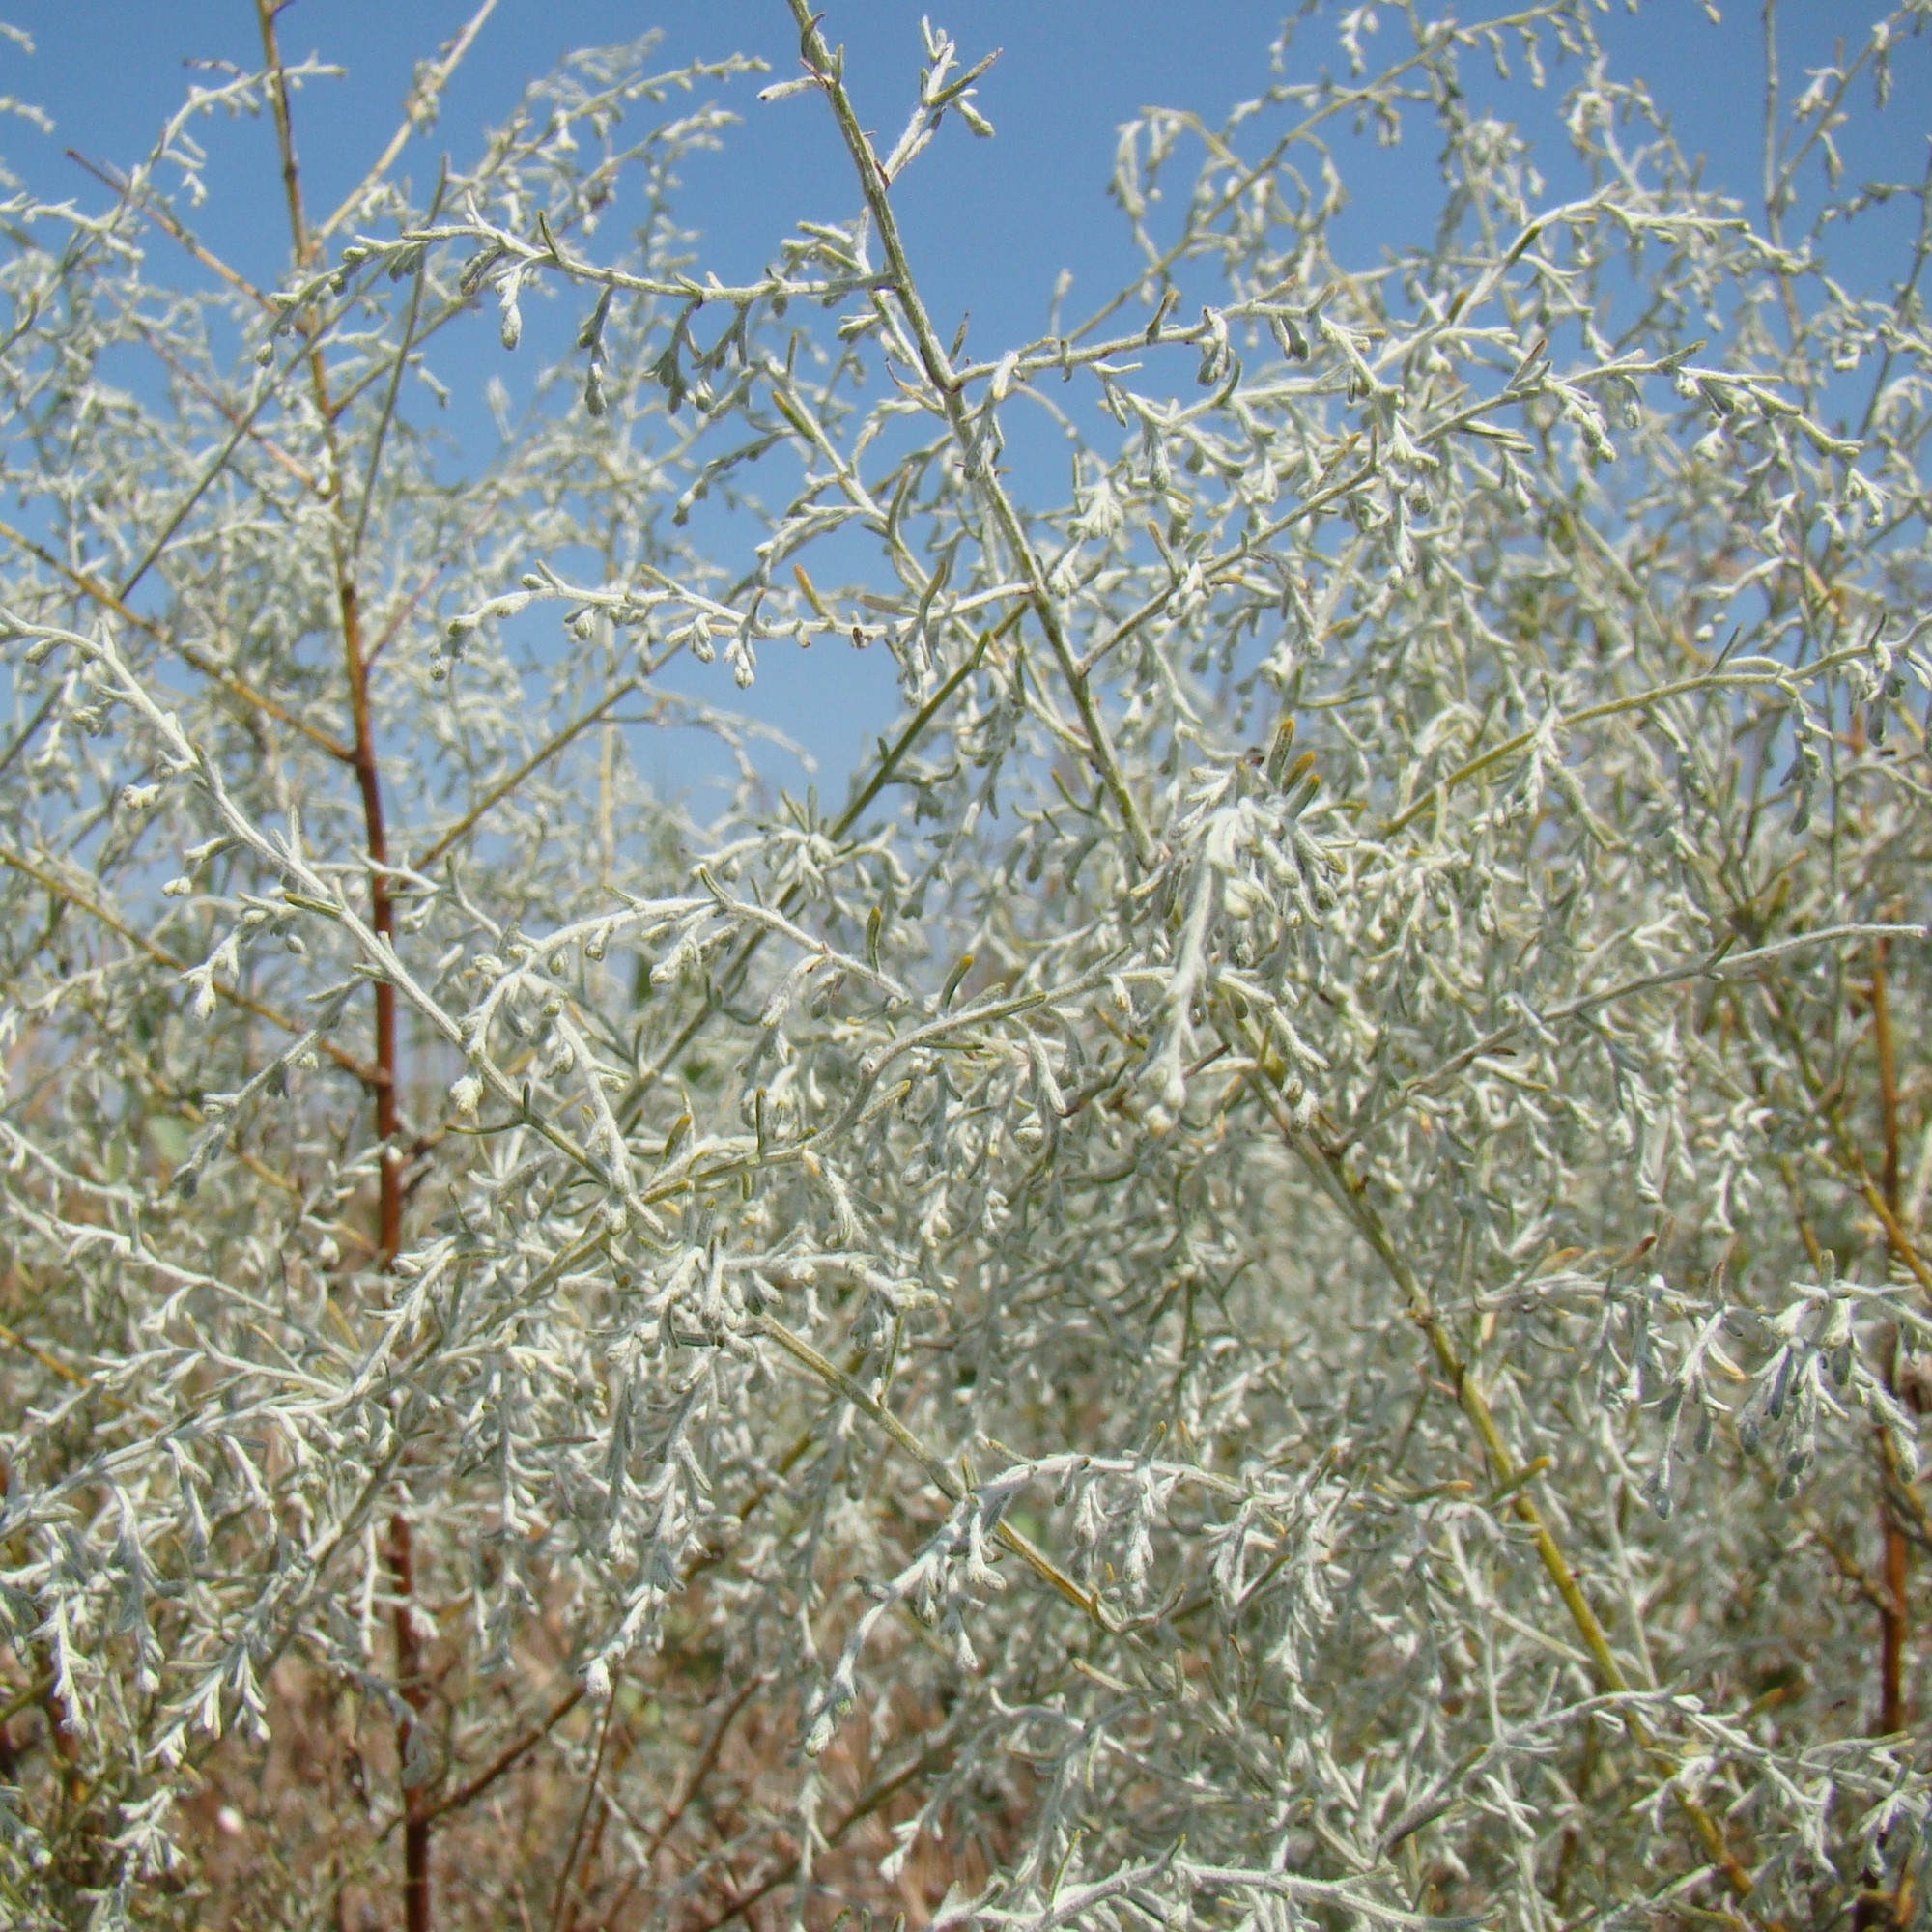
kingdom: Plantae
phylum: Tracheophyta
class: Magnoliopsida
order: Asterales
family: Asteraceae
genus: Artemisia
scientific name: Artemisia santonicum
